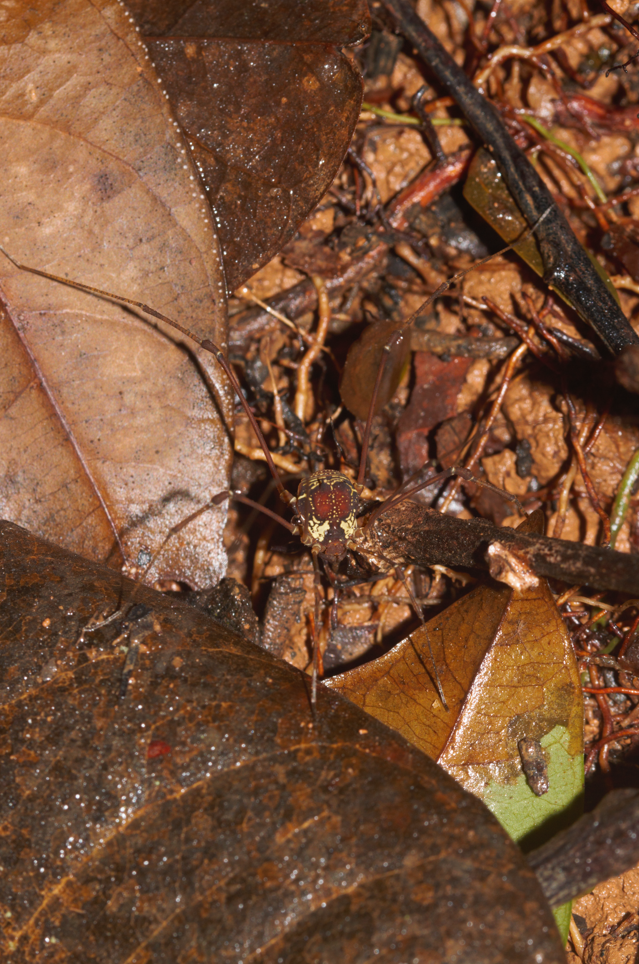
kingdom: Animalia
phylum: Arthropoda
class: Arachnida
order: Opiliones
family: Cosmetidae
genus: Cynorta
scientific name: Cynorta sigillata
